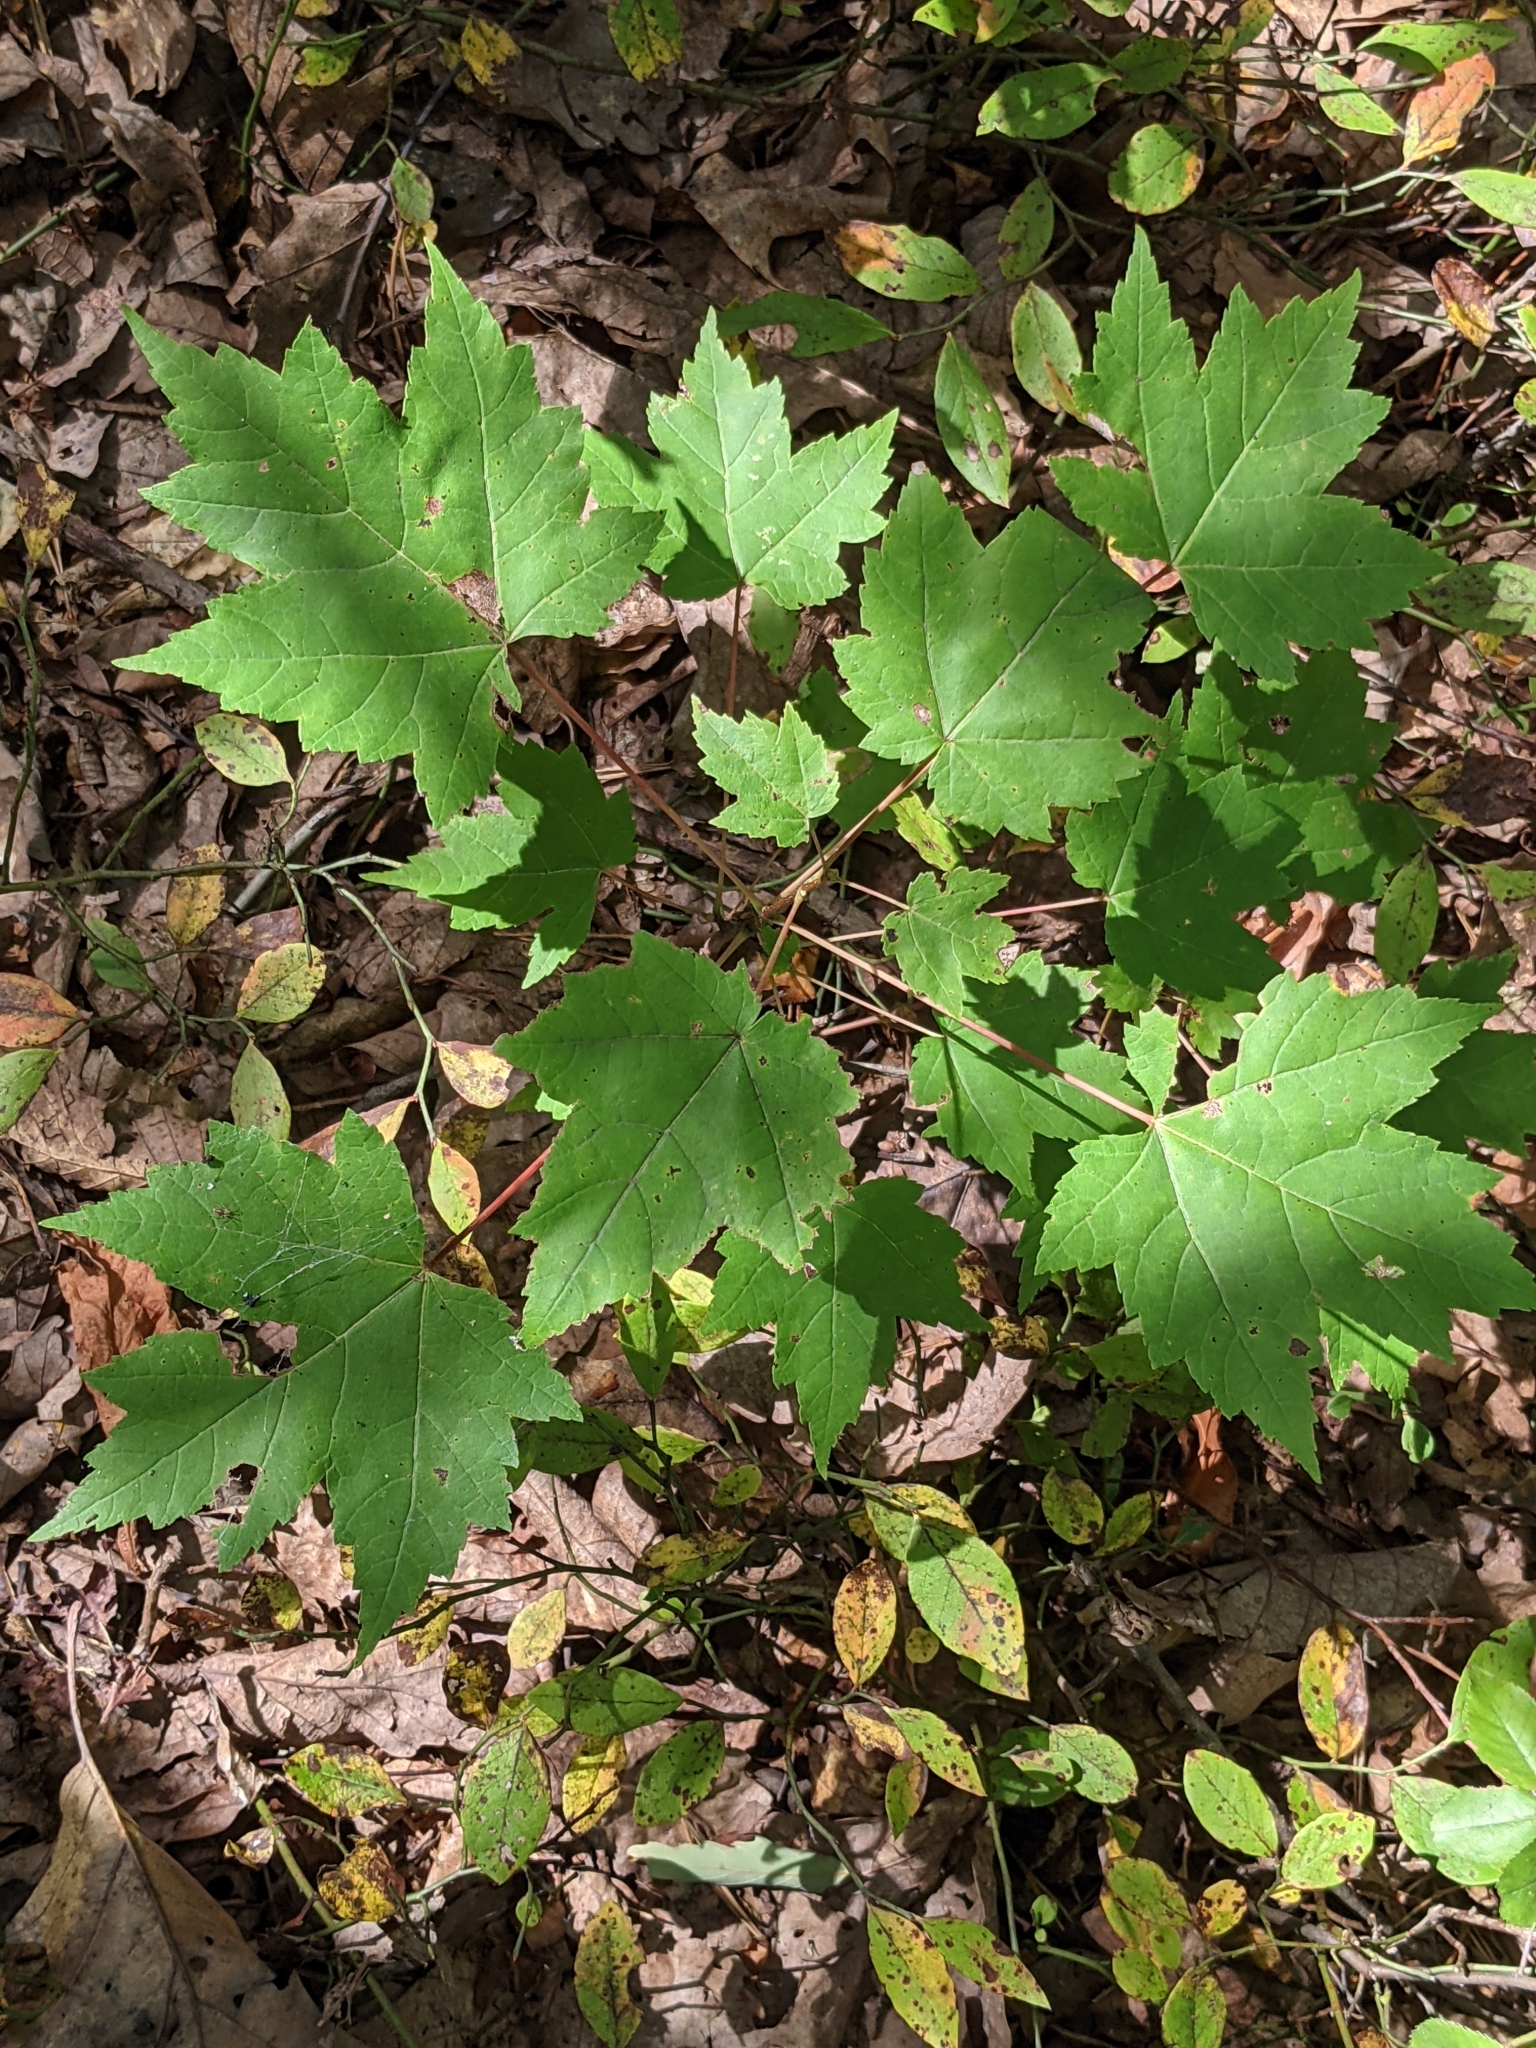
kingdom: Plantae
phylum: Tracheophyta
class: Magnoliopsida
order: Sapindales
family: Sapindaceae
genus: Acer
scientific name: Acer rubrum
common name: Red maple
